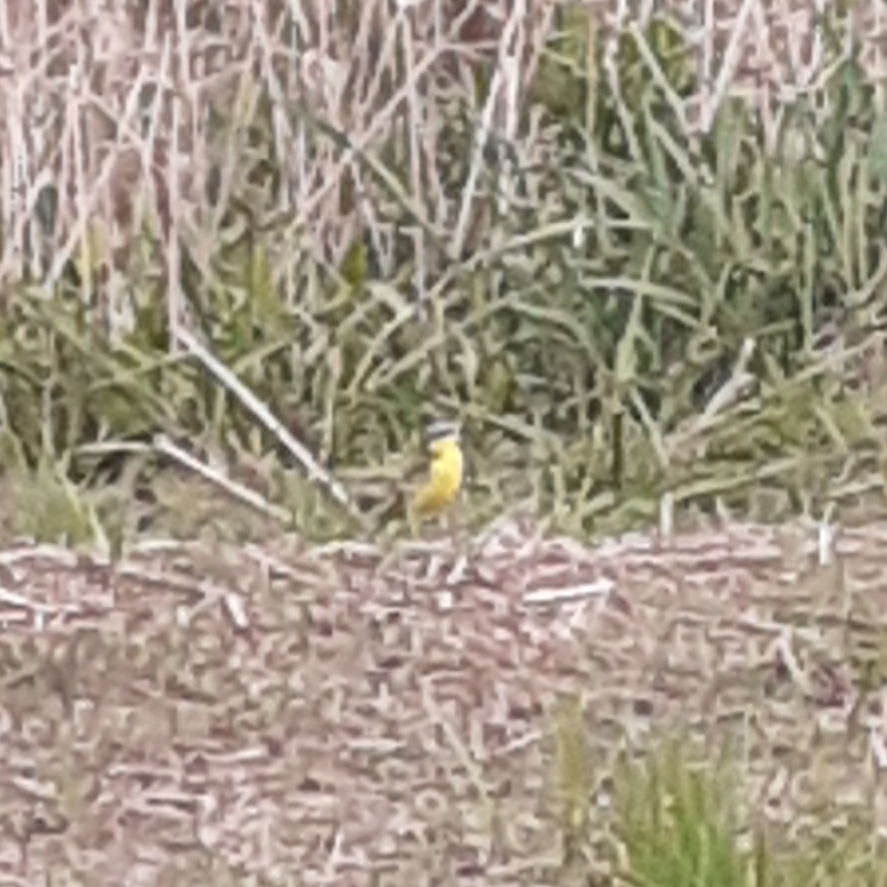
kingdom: Animalia
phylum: Chordata
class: Aves
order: Passeriformes
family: Motacillidae
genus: Motacilla
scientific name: Motacilla flava
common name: Western yellow wagtail
